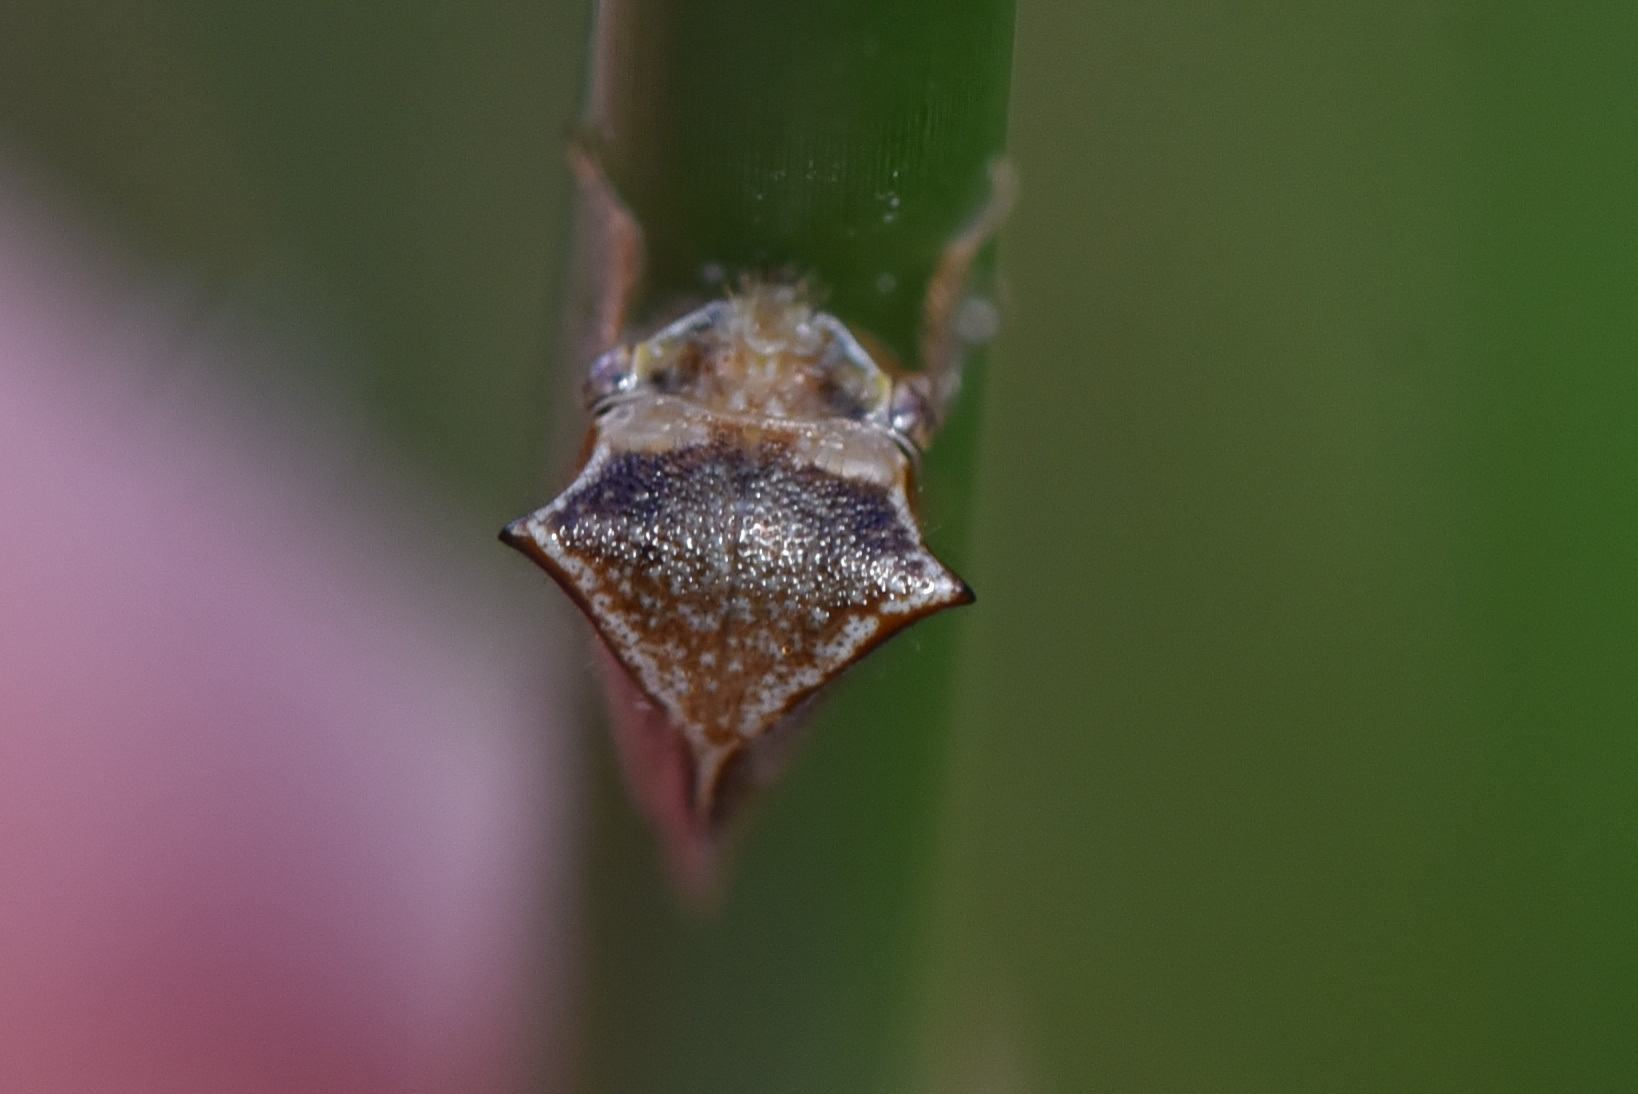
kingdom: Animalia
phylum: Arthropoda
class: Insecta
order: Hemiptera
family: Membracidae
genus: Stictocephala
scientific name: Stictocephala basalis
